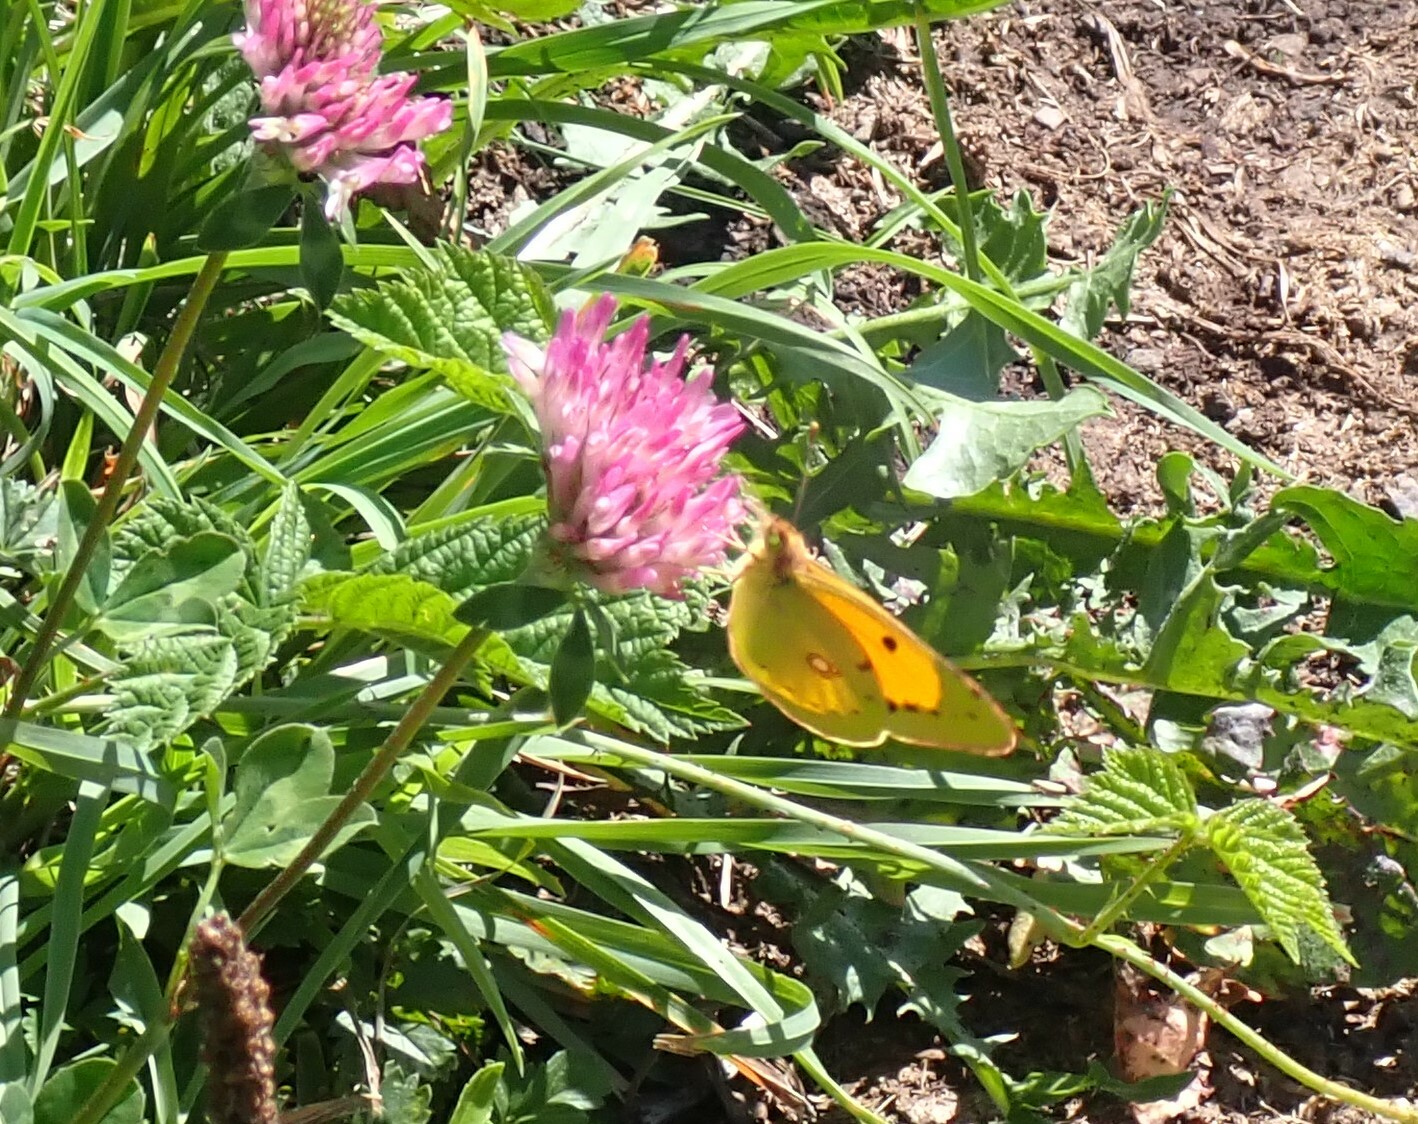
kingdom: Animalia
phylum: Arthropoda
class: Insecta
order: Lepidoptera
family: Pieridae
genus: Colias
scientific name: Colias croceus
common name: Clouded yellow
